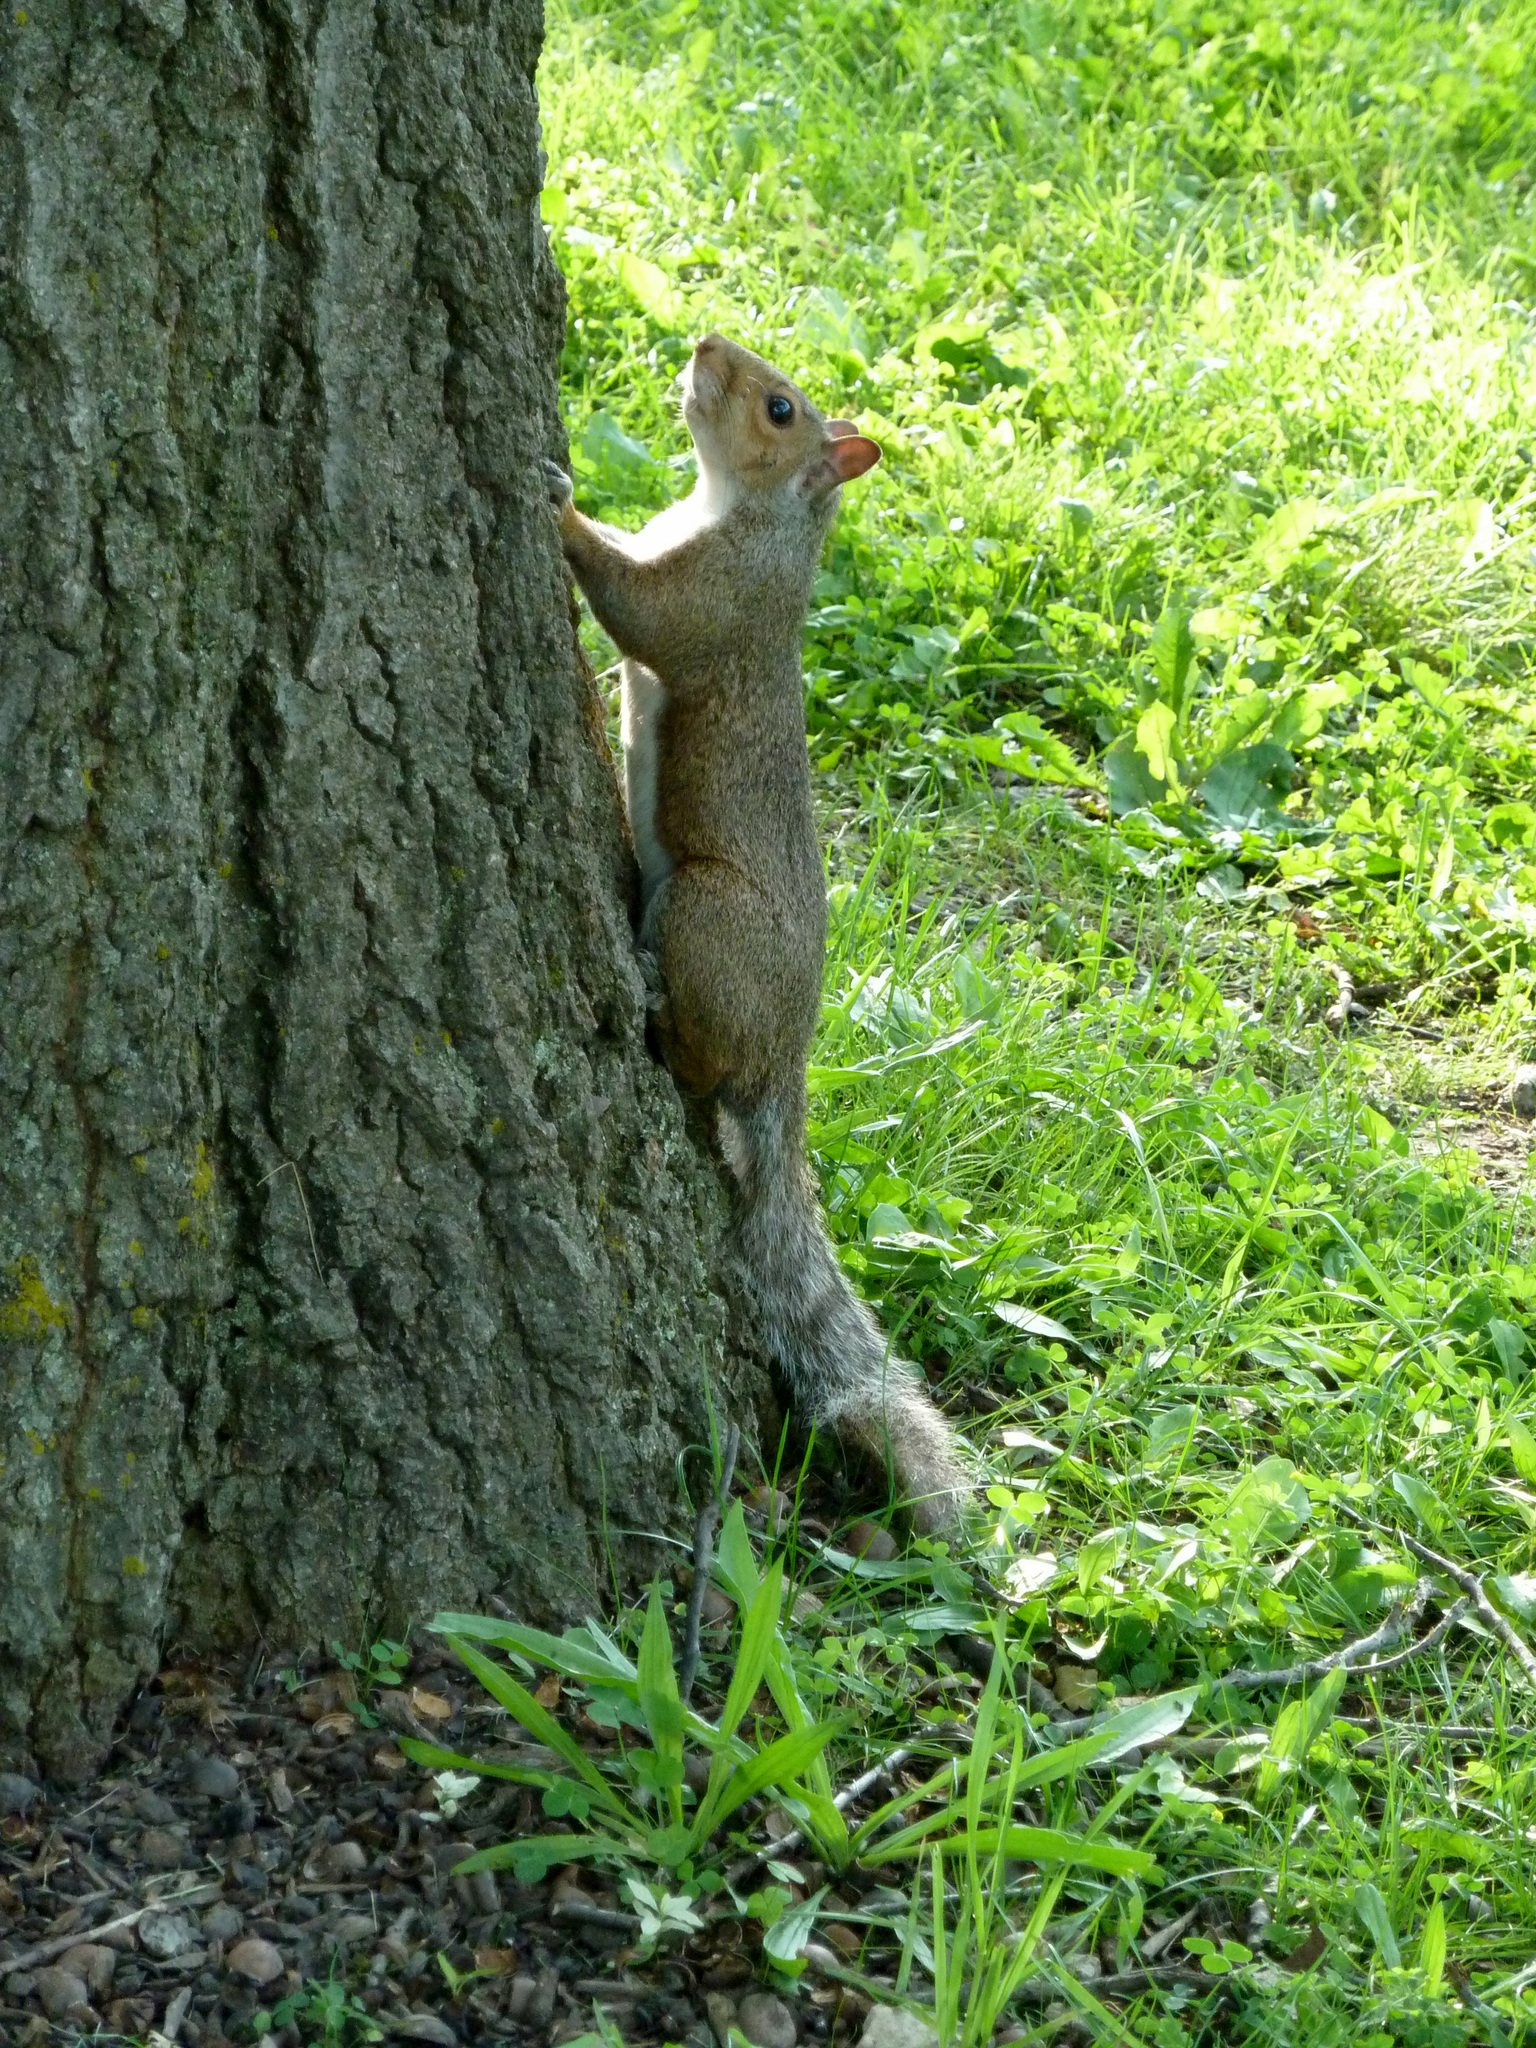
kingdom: Animalia
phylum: Chordata
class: Mammalia
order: Rodentia
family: Sciuridae
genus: Sciurus
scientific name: Sciurus carolinensis
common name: Eastern gray squirrel
